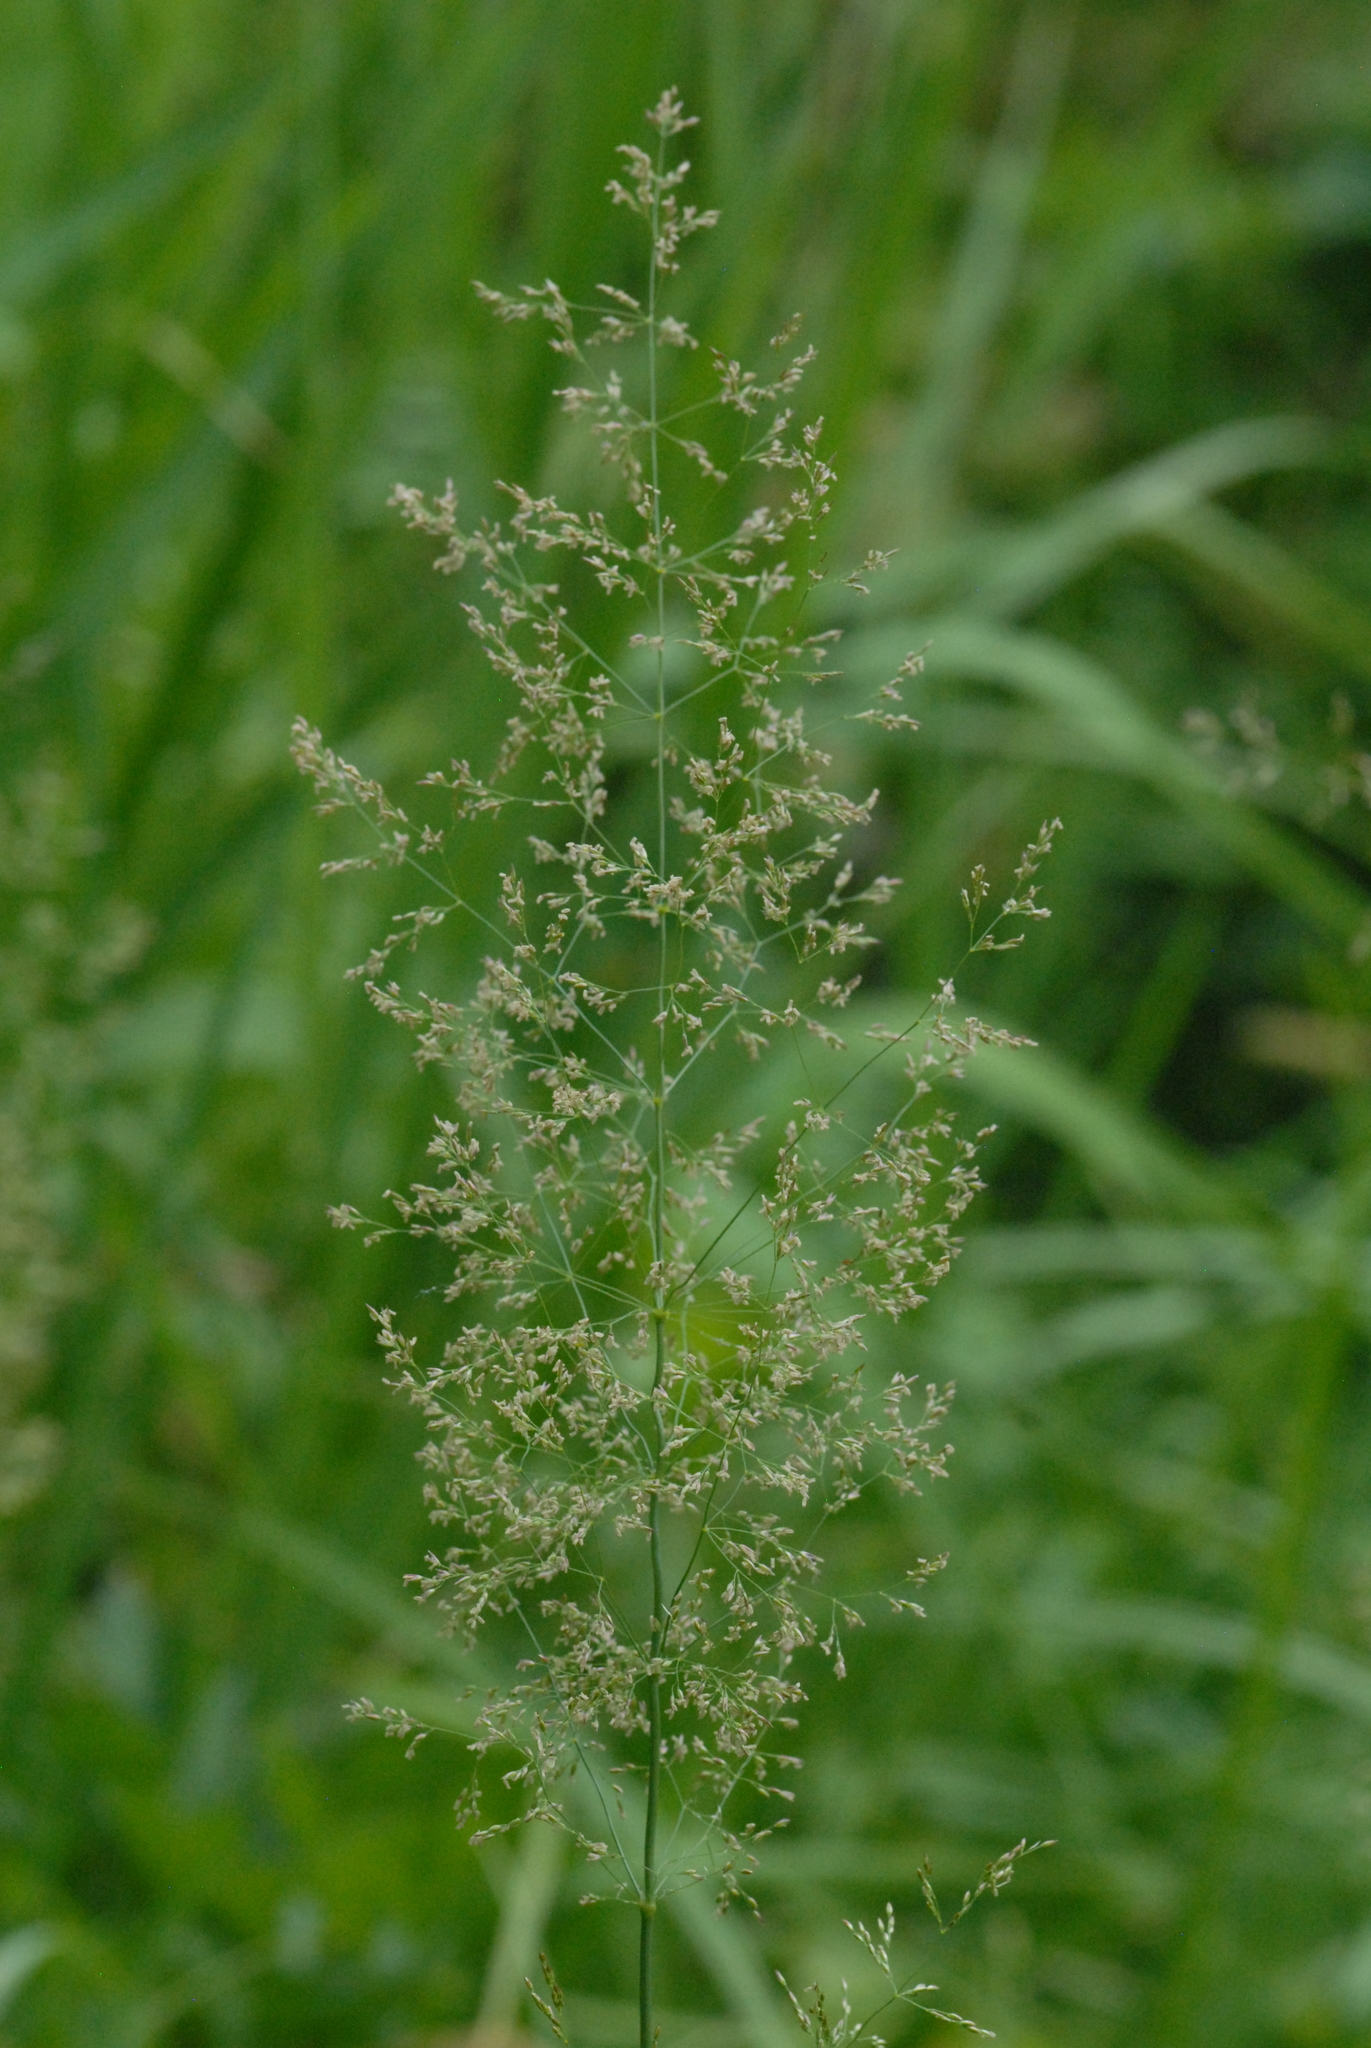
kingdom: Plantae
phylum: Tracheophyta
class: Liliopsida
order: Poales
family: Poaceae
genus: Agrostis
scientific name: Agrostis gigantea
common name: Black bent
